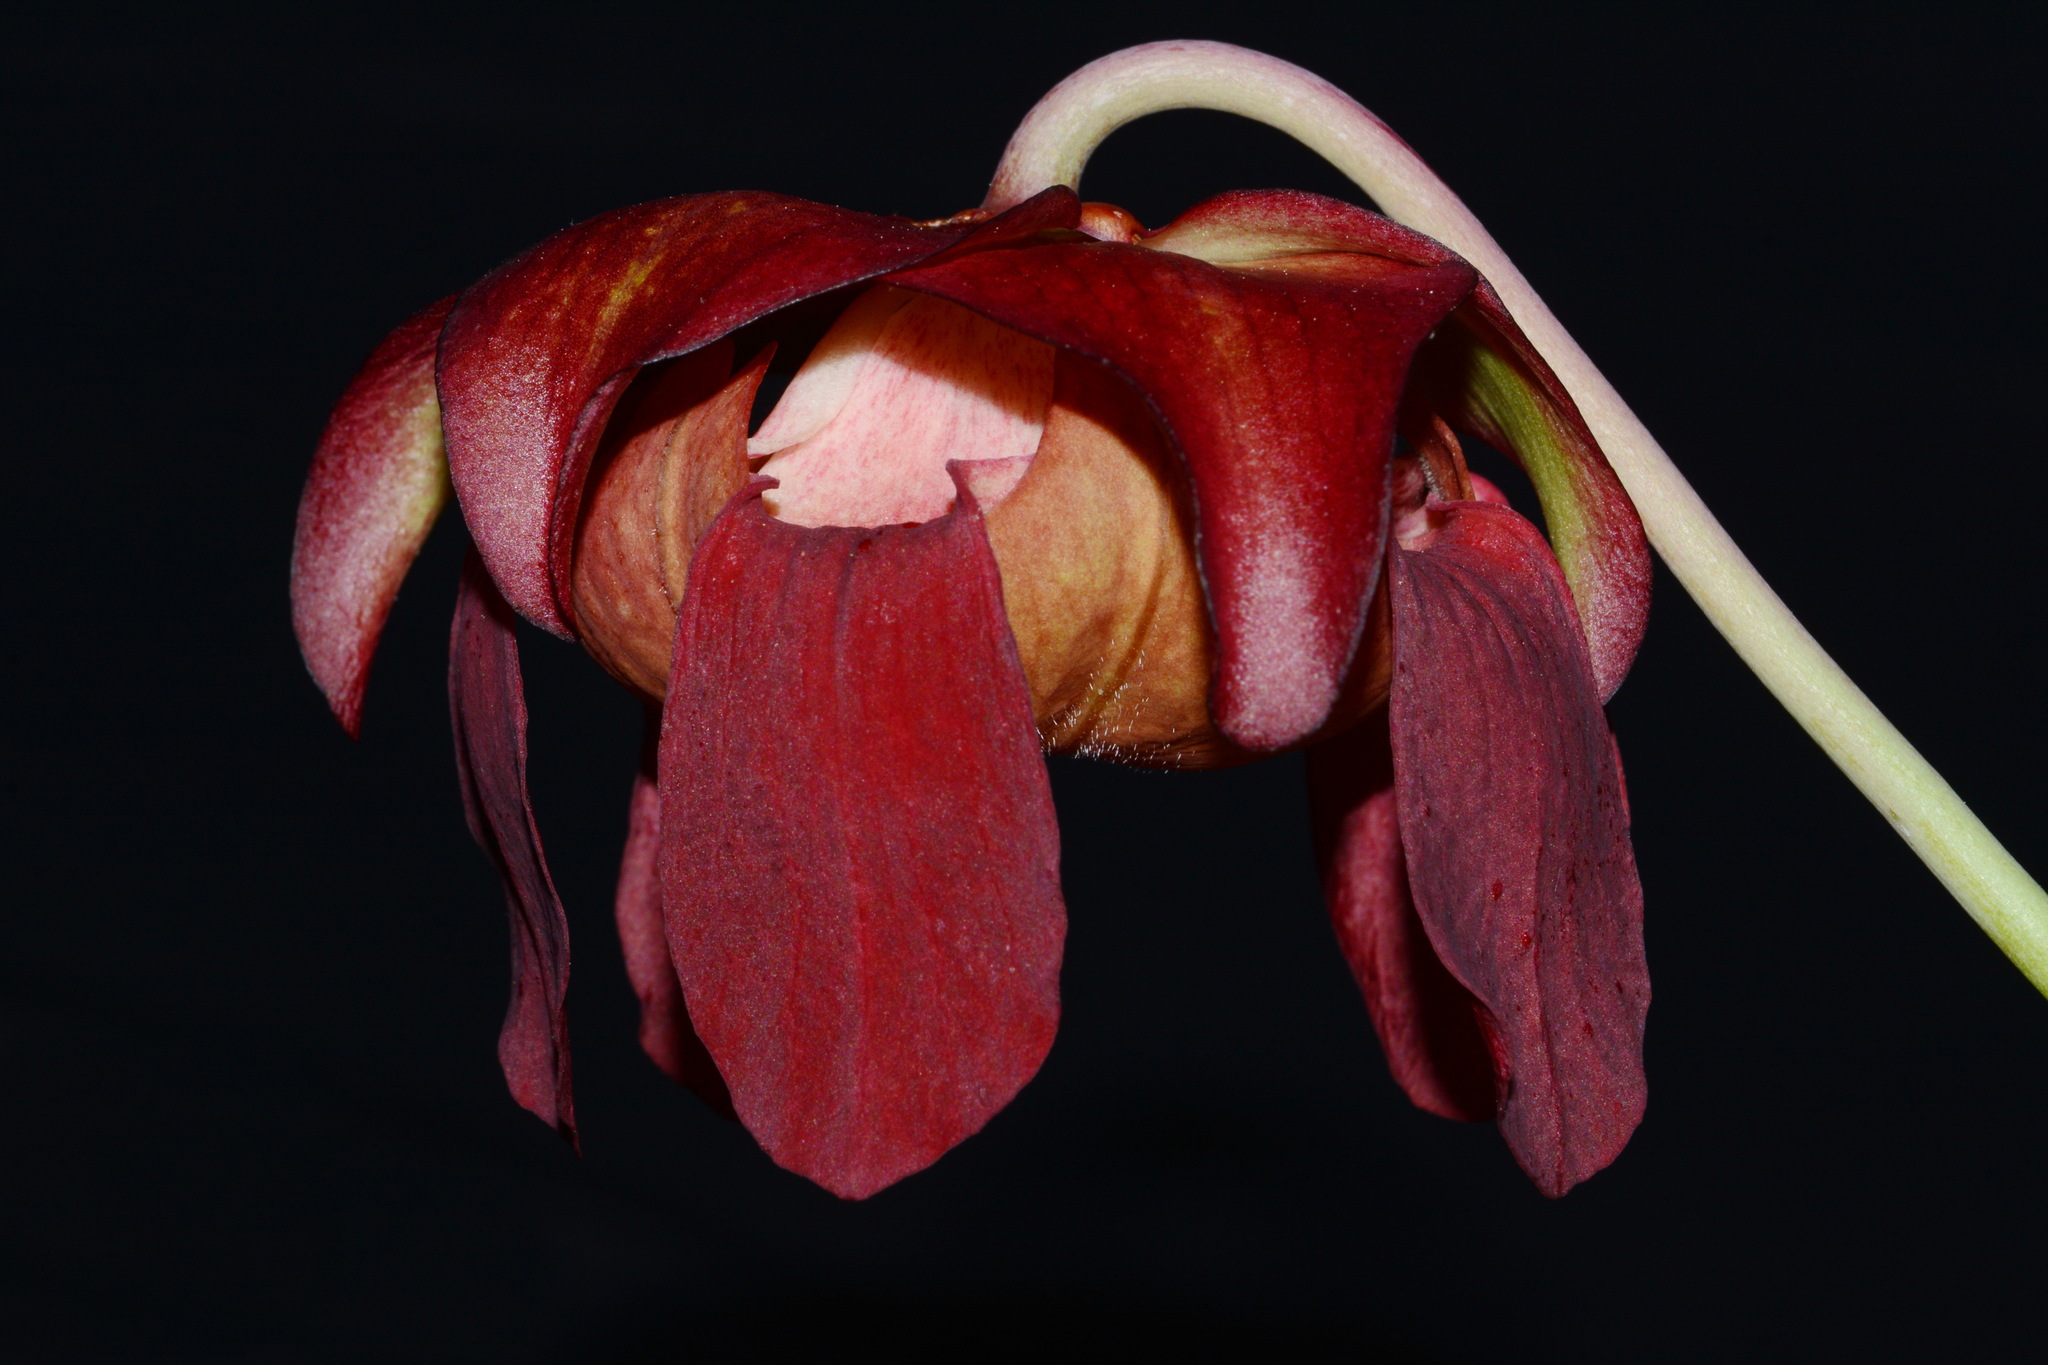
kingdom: Plantae
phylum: Tracheophyta
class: Magnoliopsida
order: Ericales
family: Sarraceniaceae
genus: Sarracenia
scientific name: Sarracenia leucophylla
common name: Purple trumpetleaf
